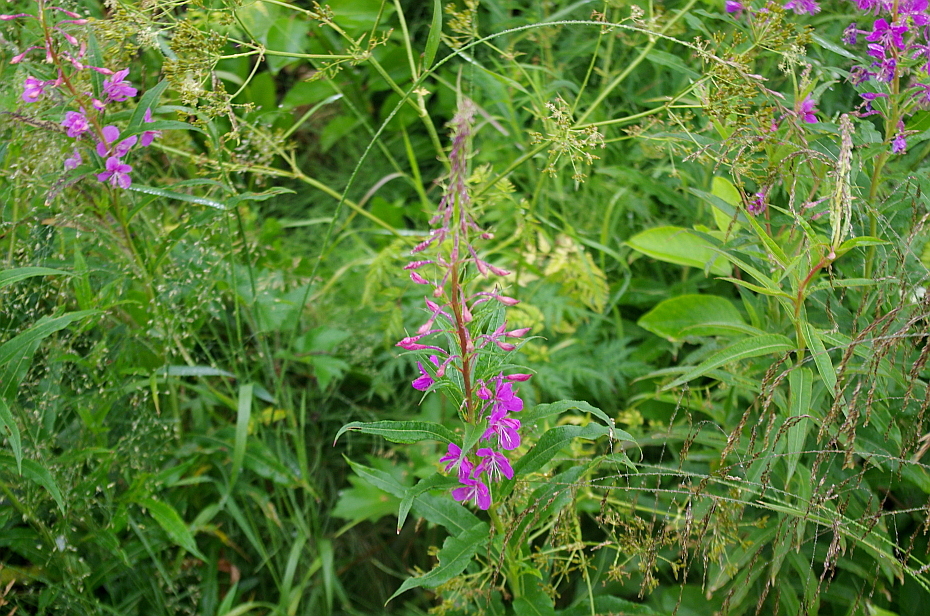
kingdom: Plantae
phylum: Tracheophyta
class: Magnoliopsida
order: Myrtales
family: Onagraceae
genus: Chamaenerion
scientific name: Chamaenerion angustifolium
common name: Fireweed
